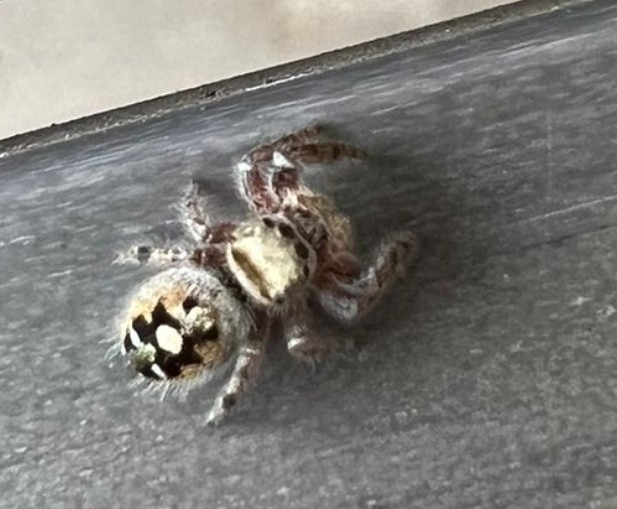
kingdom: Animalia
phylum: Arthropoda
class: Arachnida
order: Araneae
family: Salticidae
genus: Phidippus
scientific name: Phidippus audax
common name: Bold jumper
